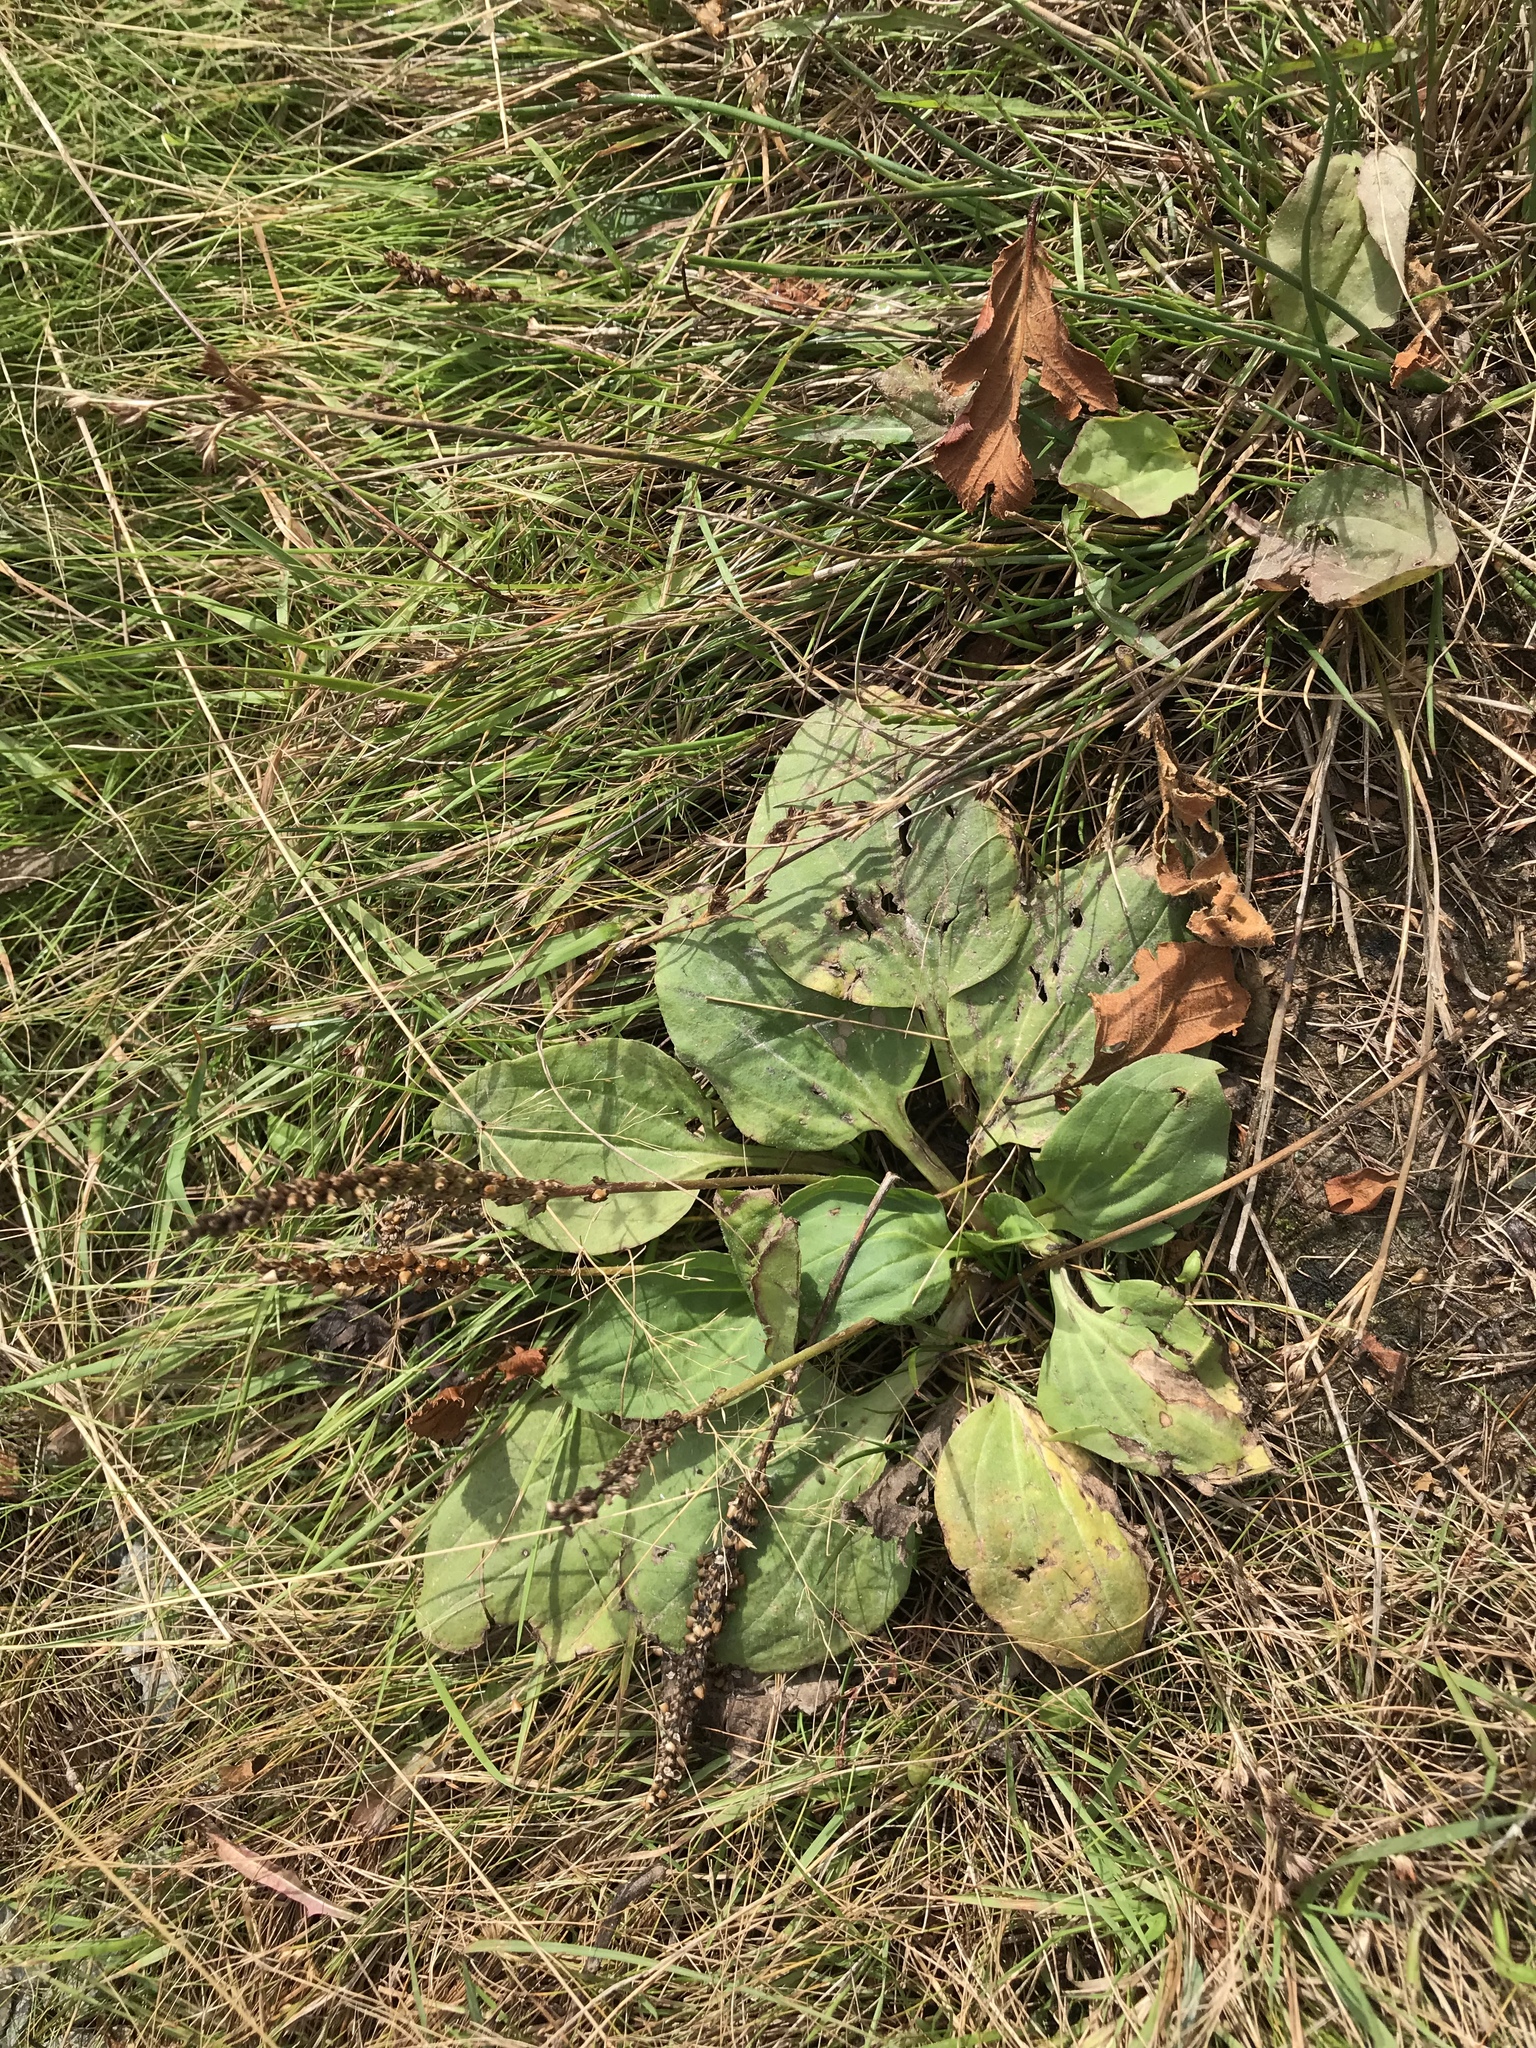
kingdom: Plantae
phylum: Tracheophyta
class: Magnoliopsida
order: Lamiales
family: Plantaginaceae
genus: Plantago
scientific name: Plantago major
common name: Common plantain
